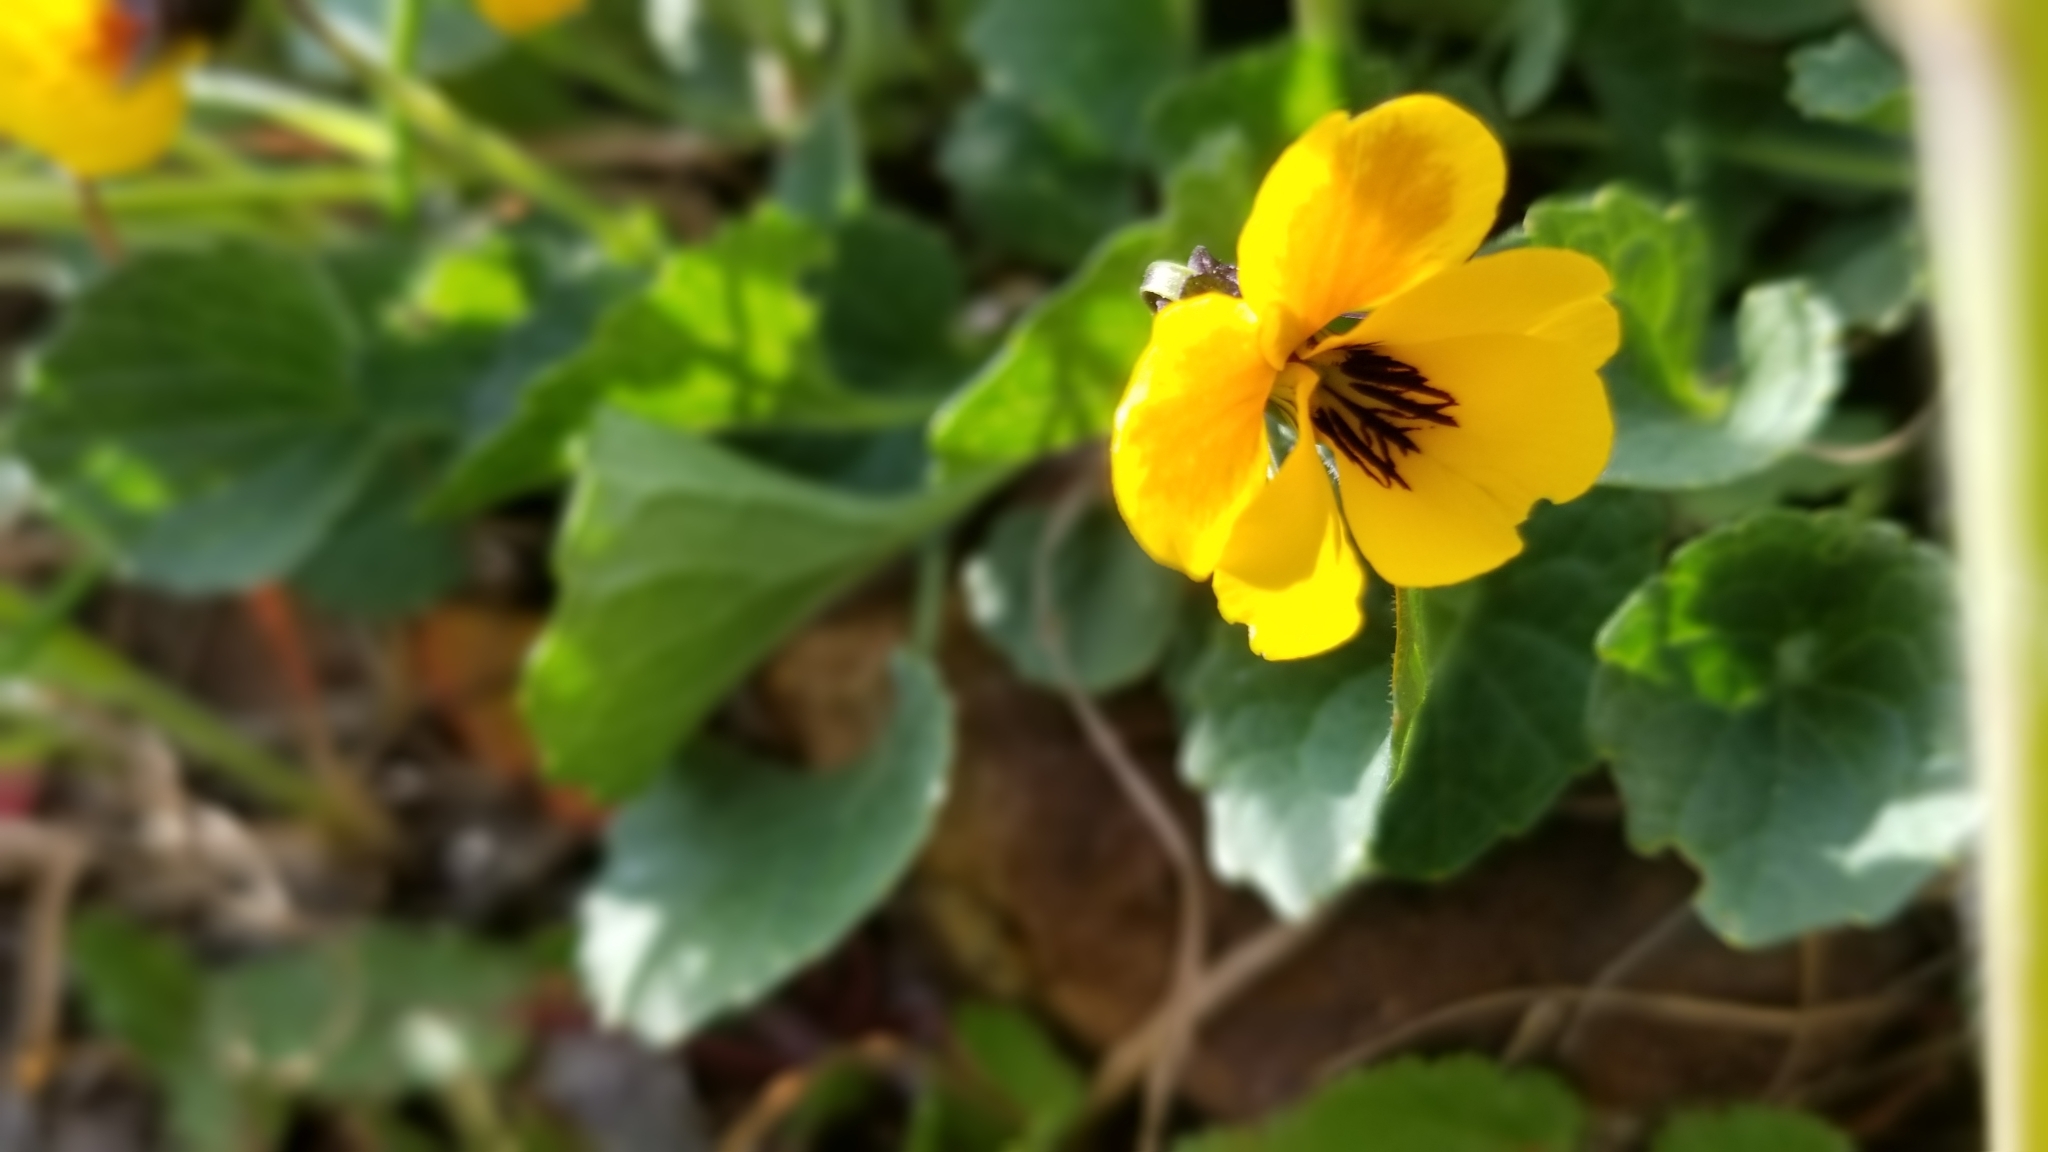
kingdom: Plantae
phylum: Tracheophyta
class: Magnoliopsida
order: Malpighiales
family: Violaceae
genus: Viola
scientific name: Viola pedunculata
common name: California golden violet
